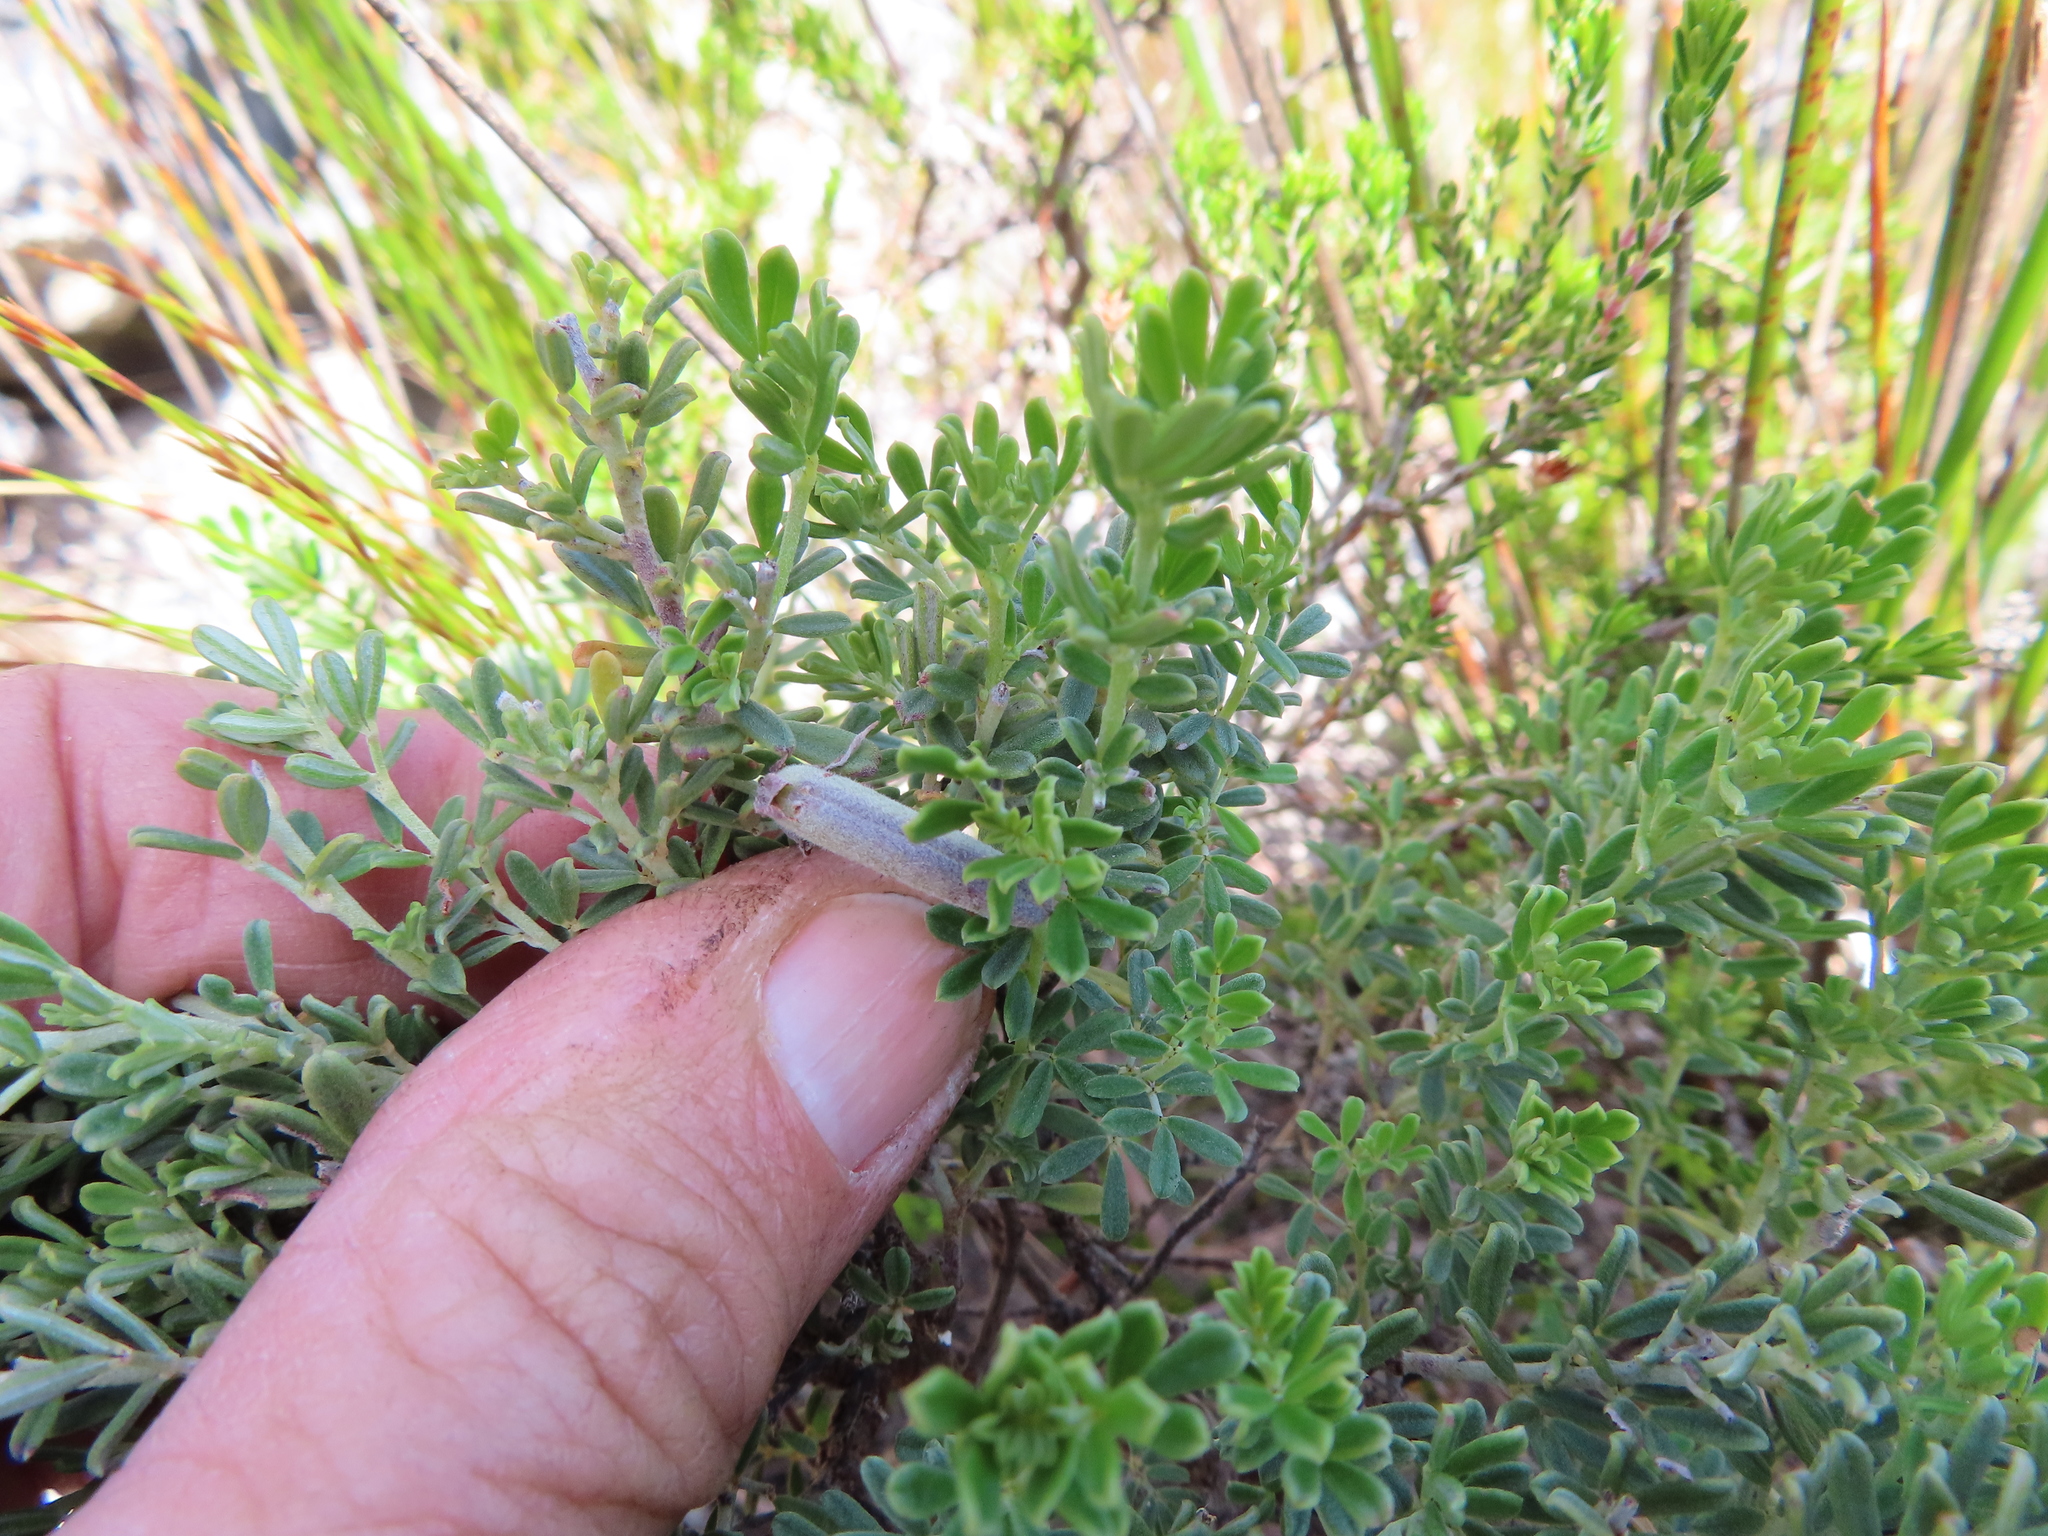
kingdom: Plantae
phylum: Tracheophyta
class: Magnoliopsida
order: Fabales
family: Fabaceae
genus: Indigofera
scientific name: Indigofera brachystachya
